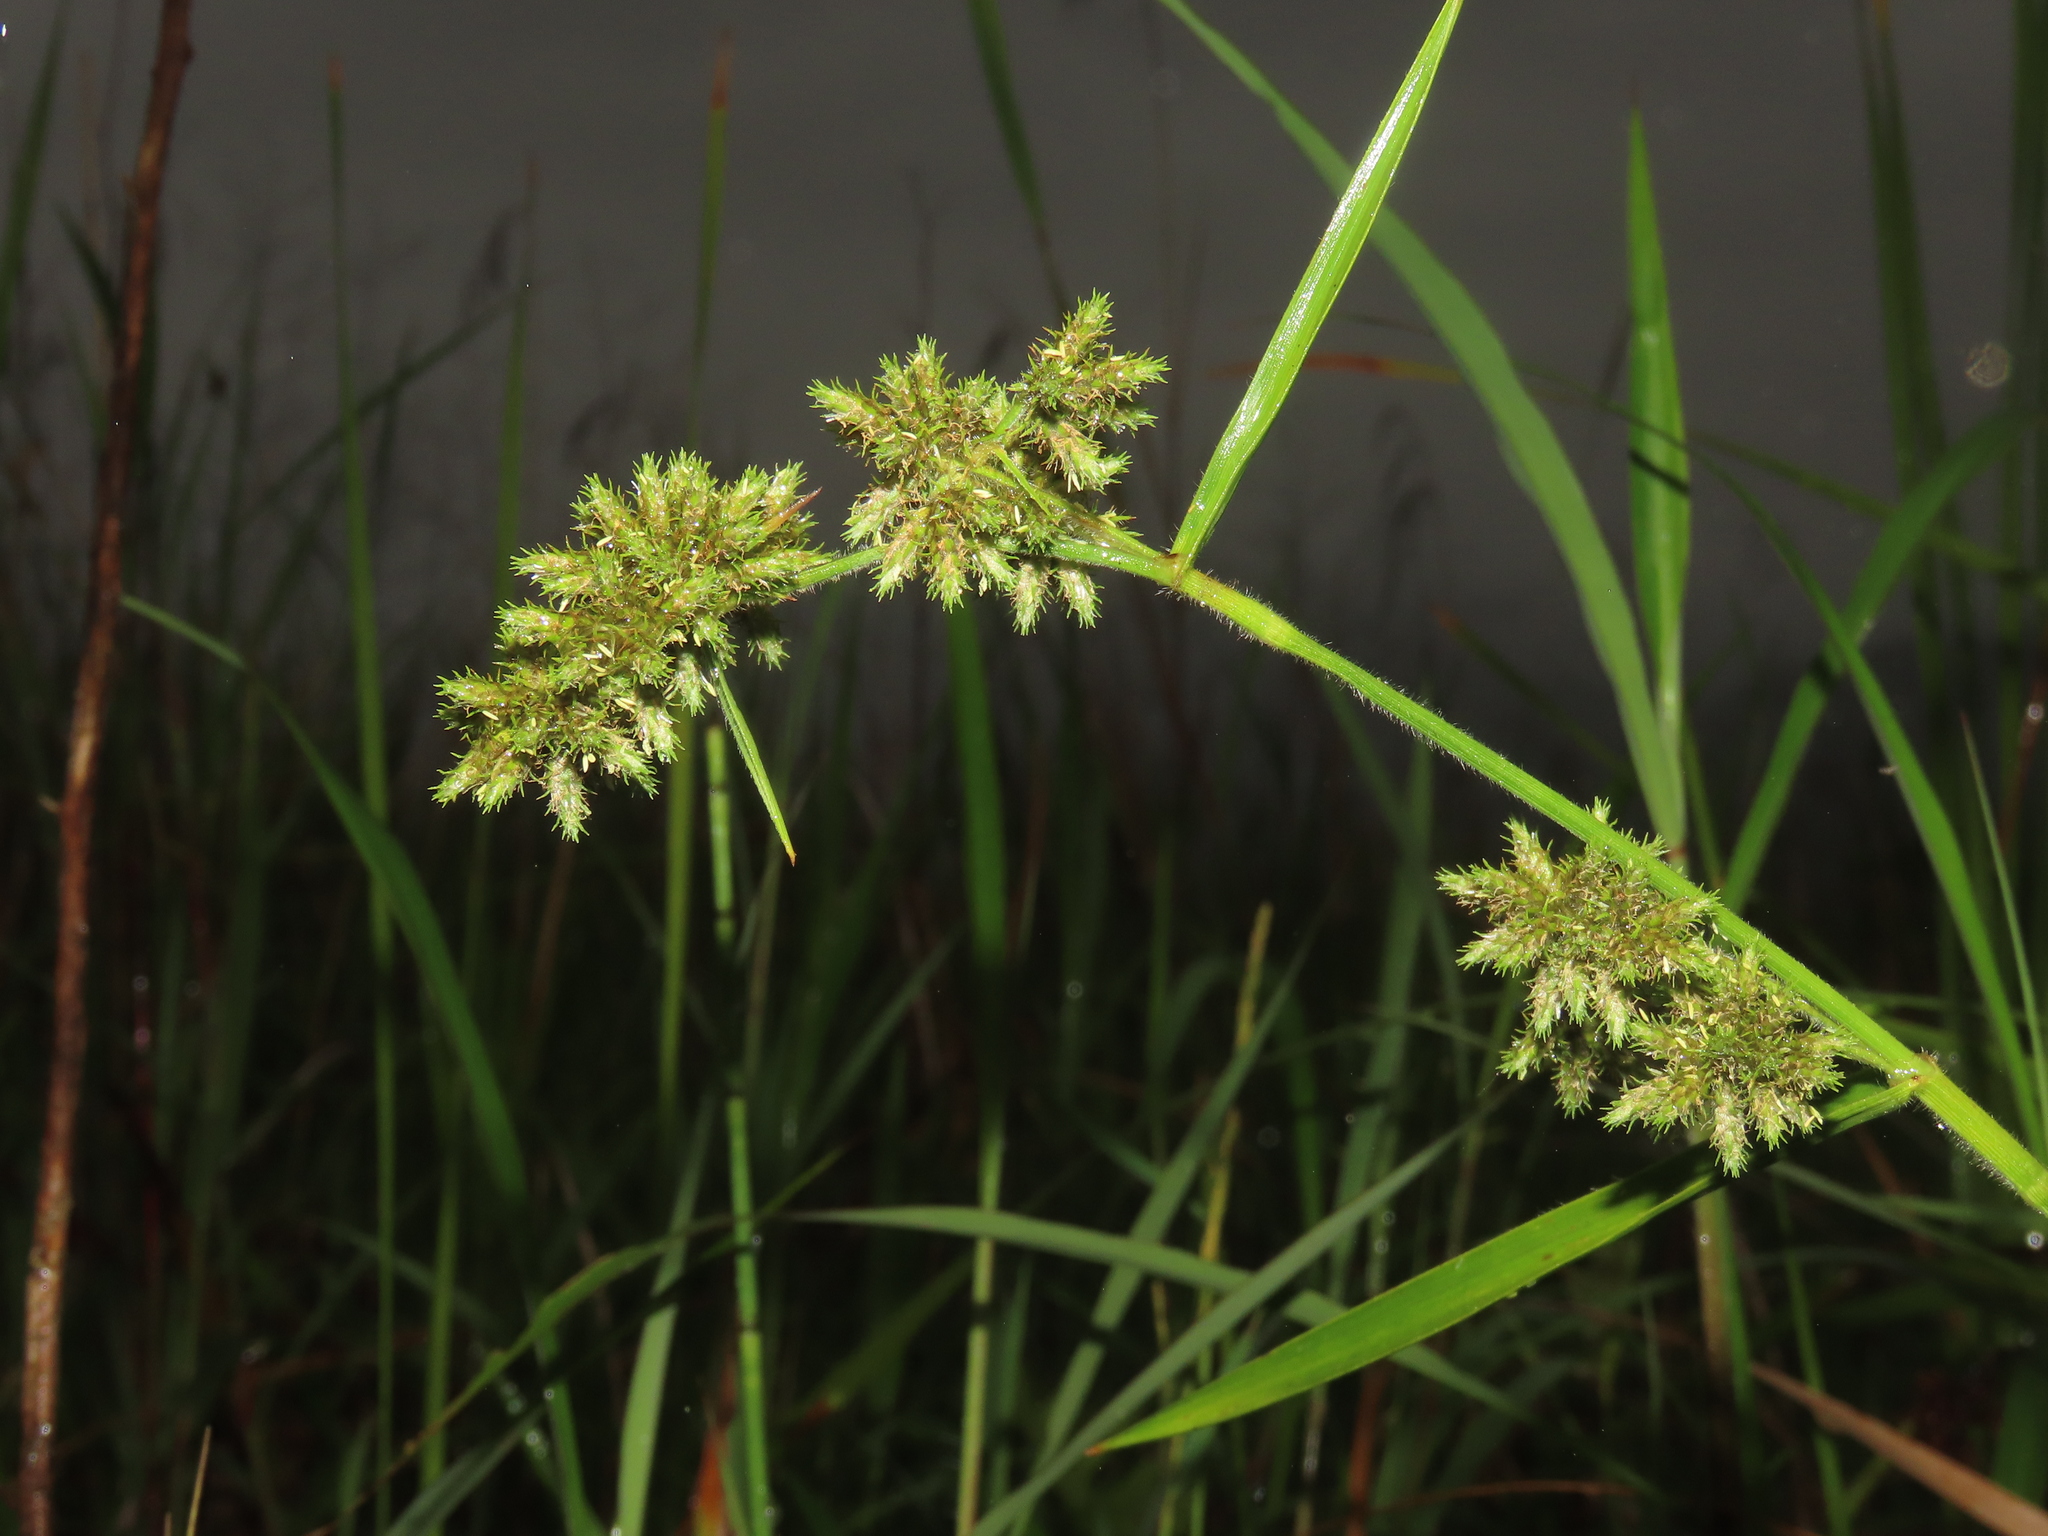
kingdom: Plantae
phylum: Tracheophyta
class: Liliopsida
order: Poales
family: Cyperaceae
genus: Fuirena
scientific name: Fuirena umbellata
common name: Yefen
